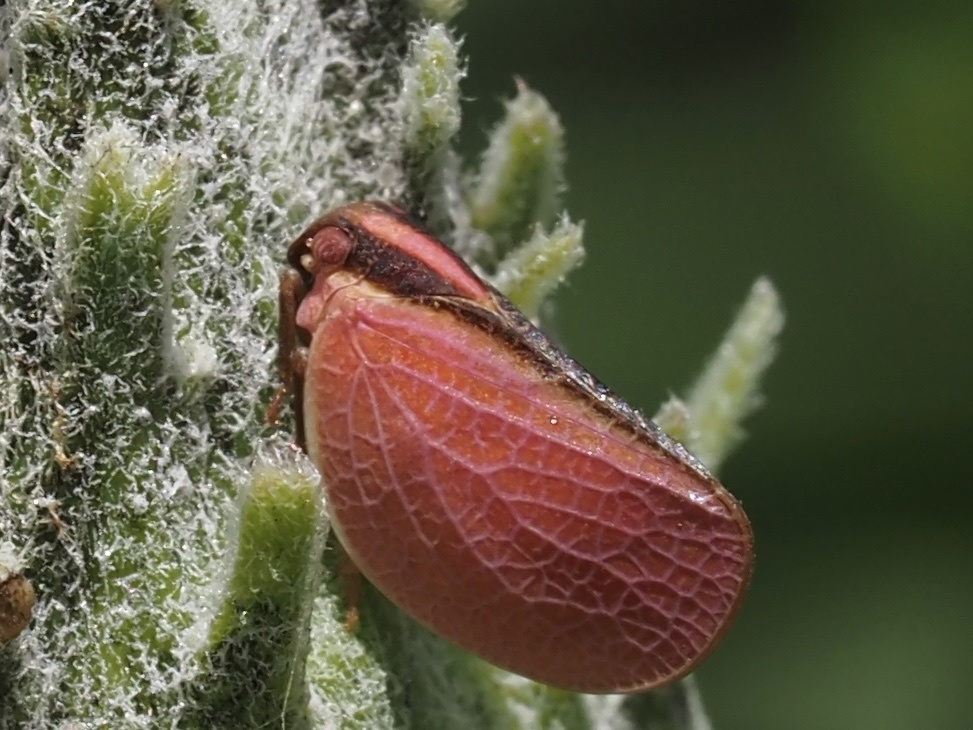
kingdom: Animalia
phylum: Arthropoda
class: Insecta
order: Hemiptera
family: Acanaloniidae
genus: Acanalonia
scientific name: Acanalonia bivittata
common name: Two-striped planthopper
